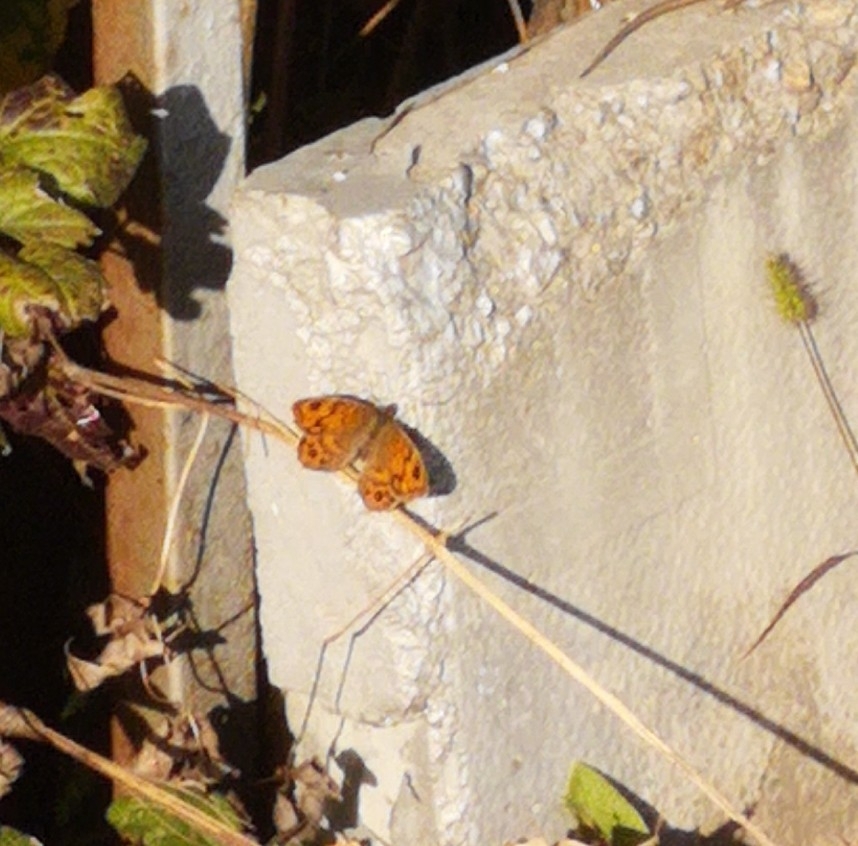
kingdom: Animalia
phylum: Arthropoda
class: Insecta
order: Lepidoptera
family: Nymphalidae
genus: Pararge
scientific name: Pararge Lasiommata megera
